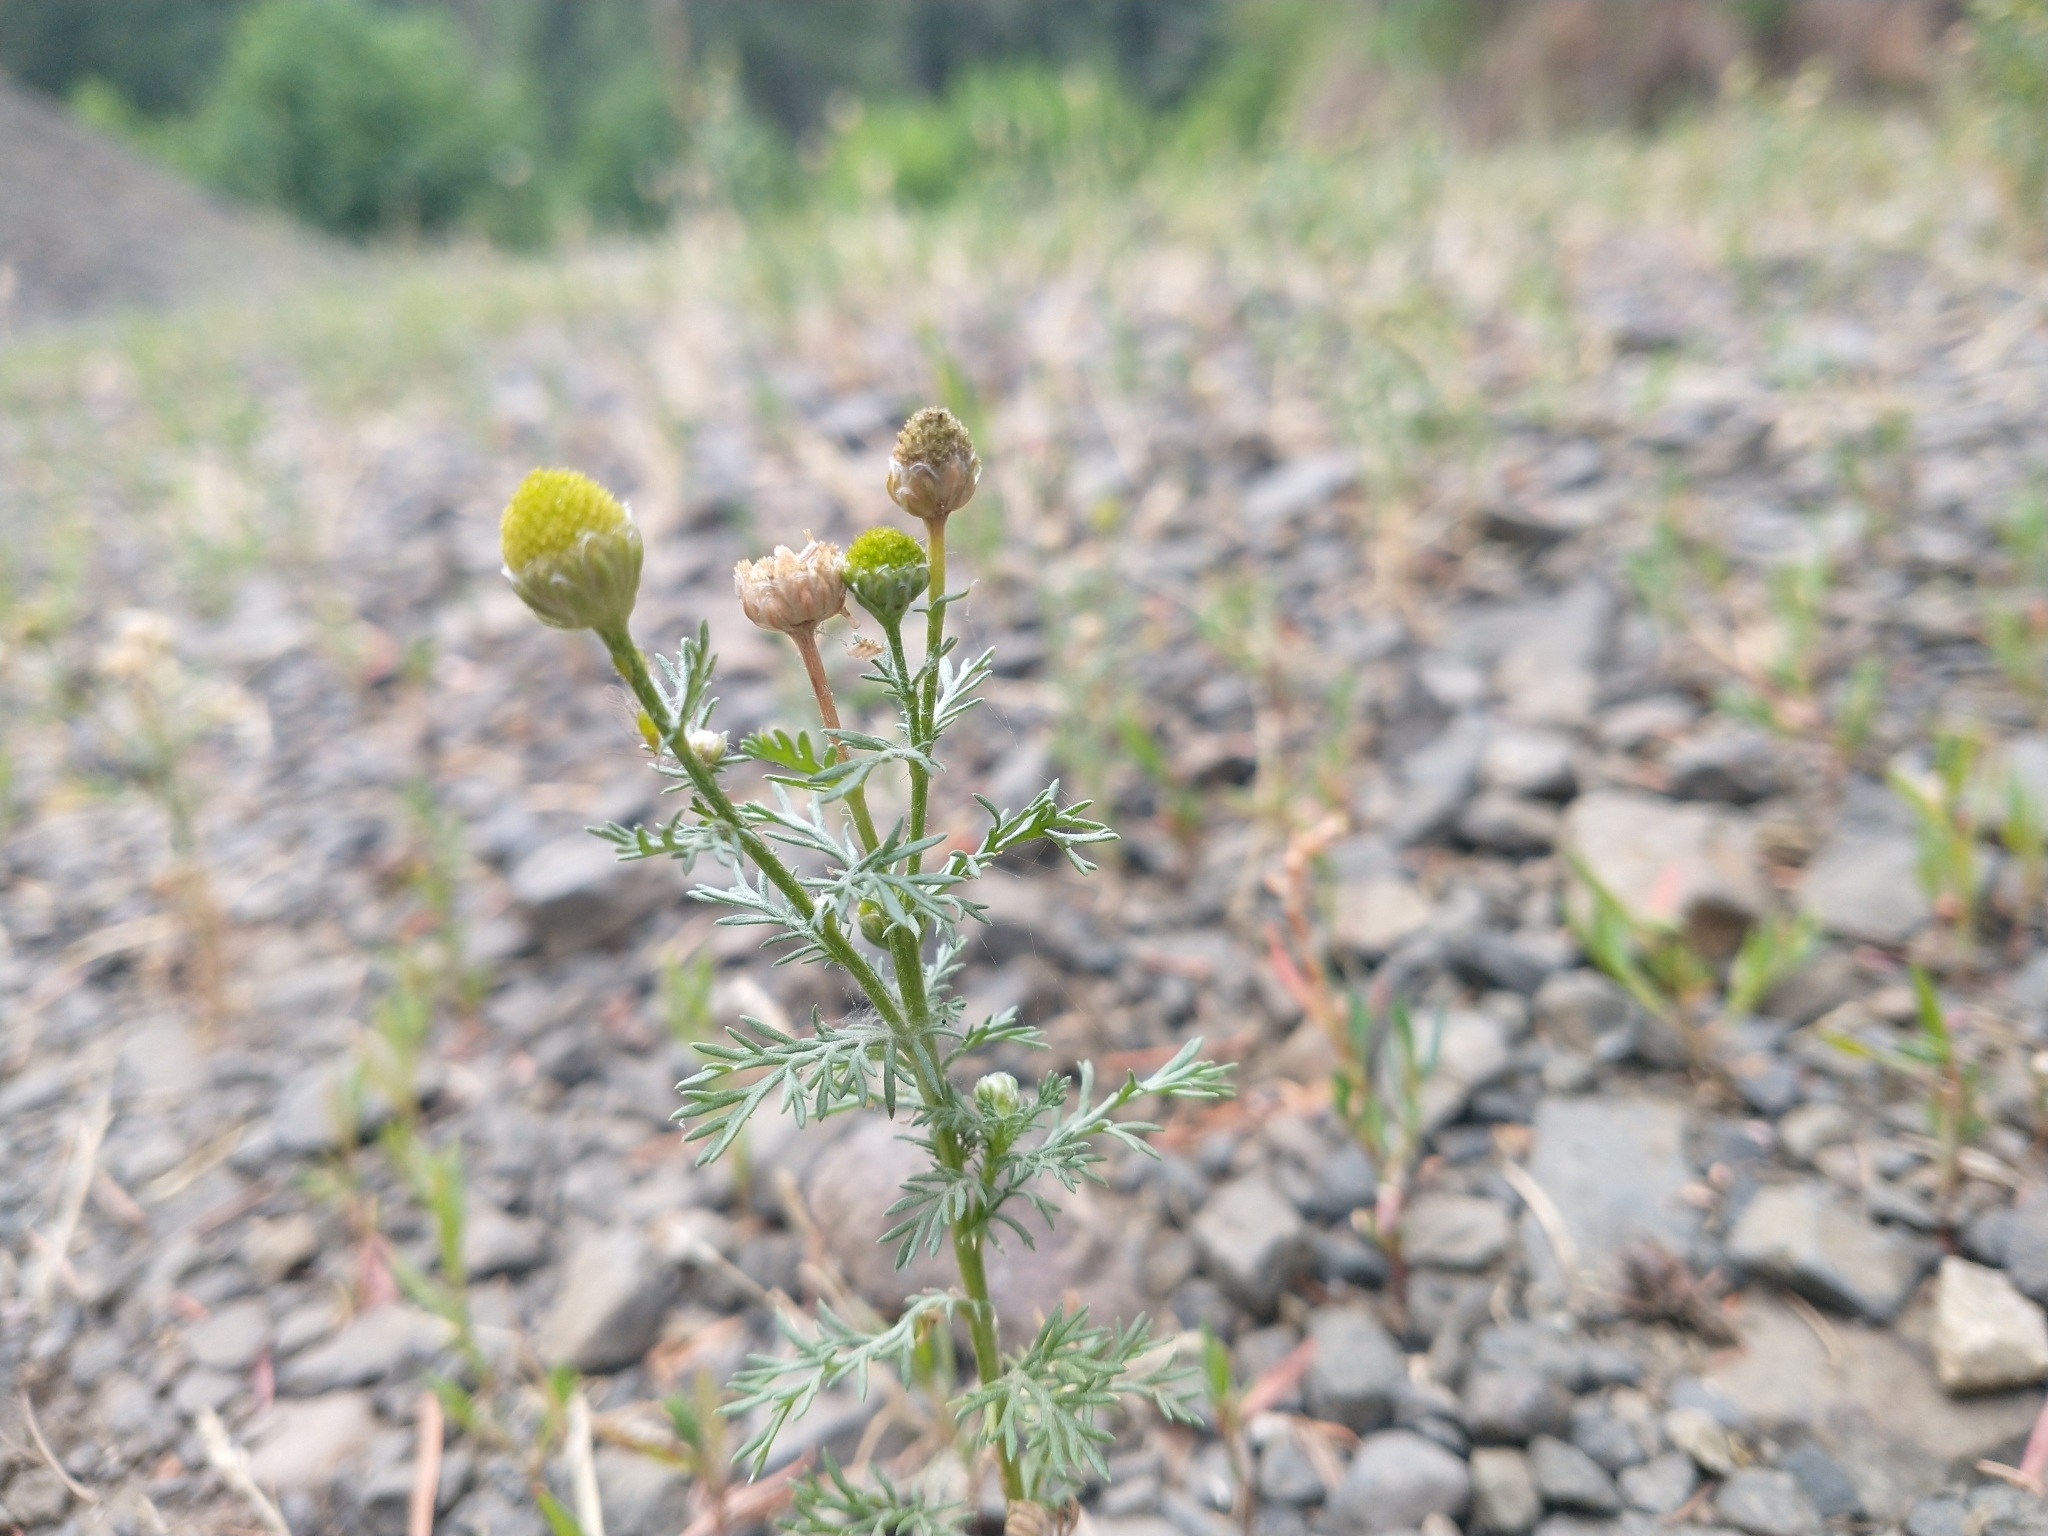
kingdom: Plantae
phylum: Tracheophyta
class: Magnoliopsida
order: Asterales
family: Asteraceae
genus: Matricaria
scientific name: Matricaria discoidea
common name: Disc mayweed
